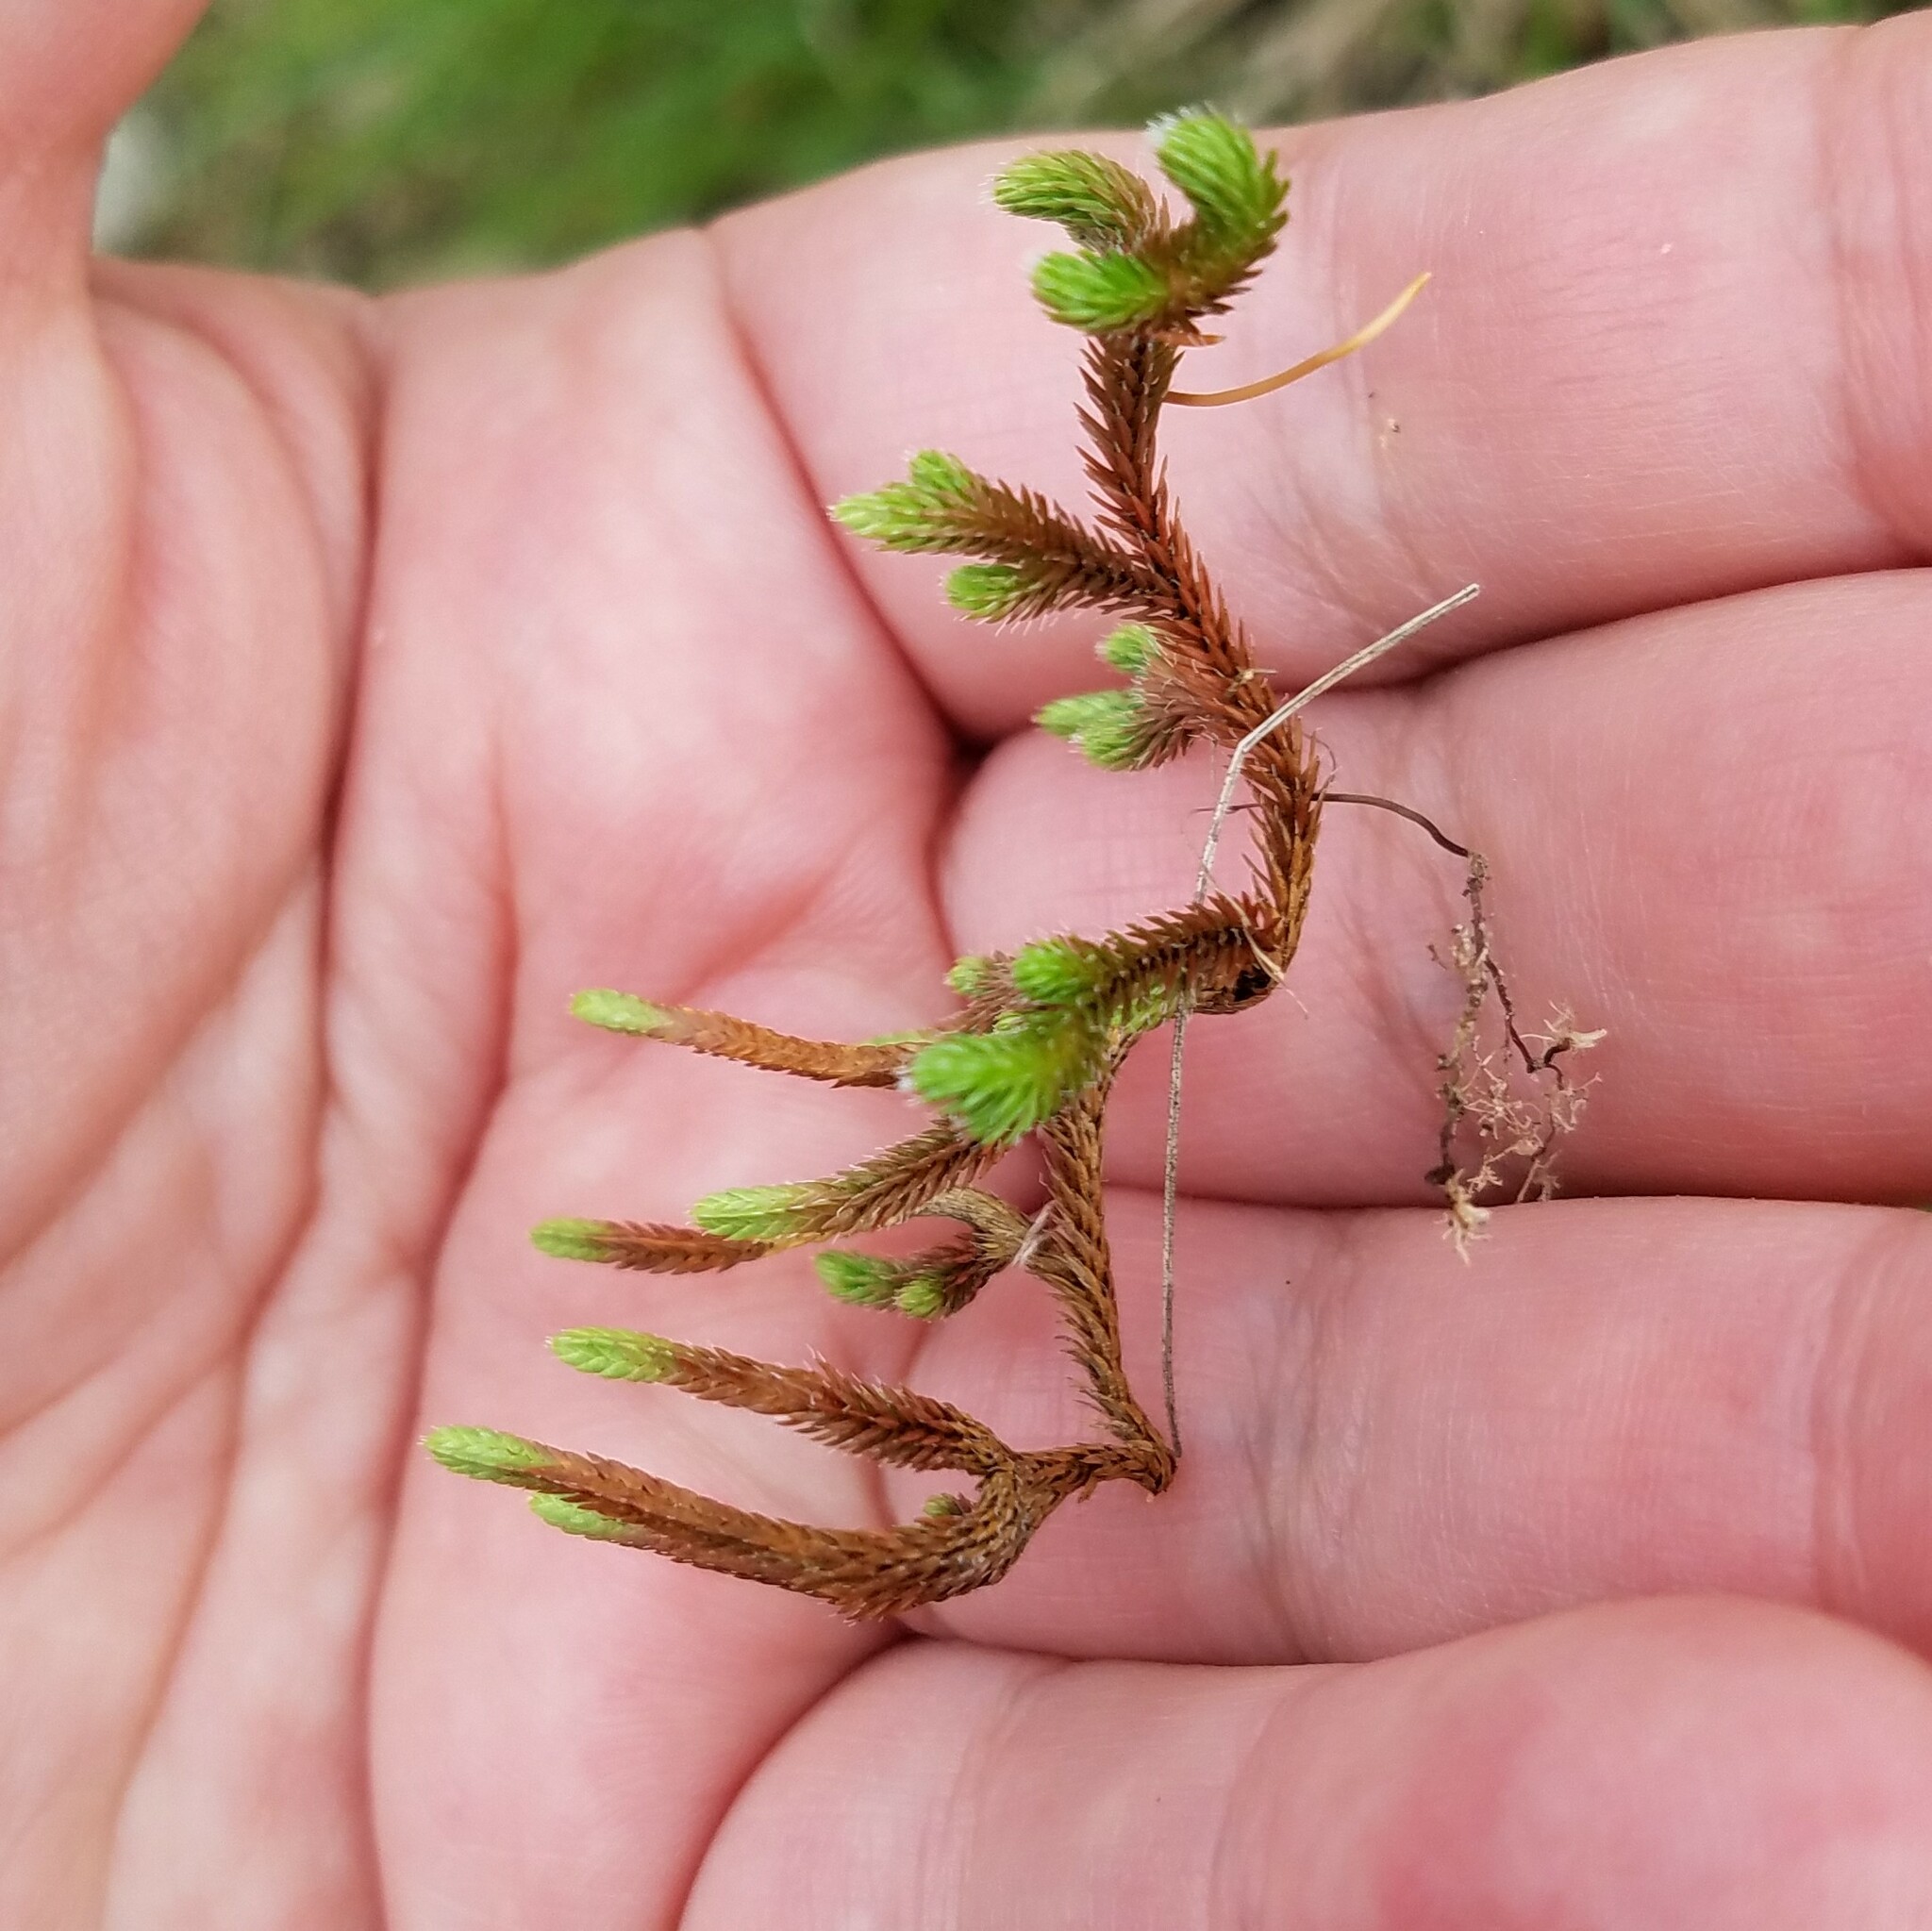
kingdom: Plantae
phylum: Tracheophyta
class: Lycopodiopsida
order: Selaginellales
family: Selaginellaceae
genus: Selaginella
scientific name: Selaginella rupestris
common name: Dwarf spikemoss
